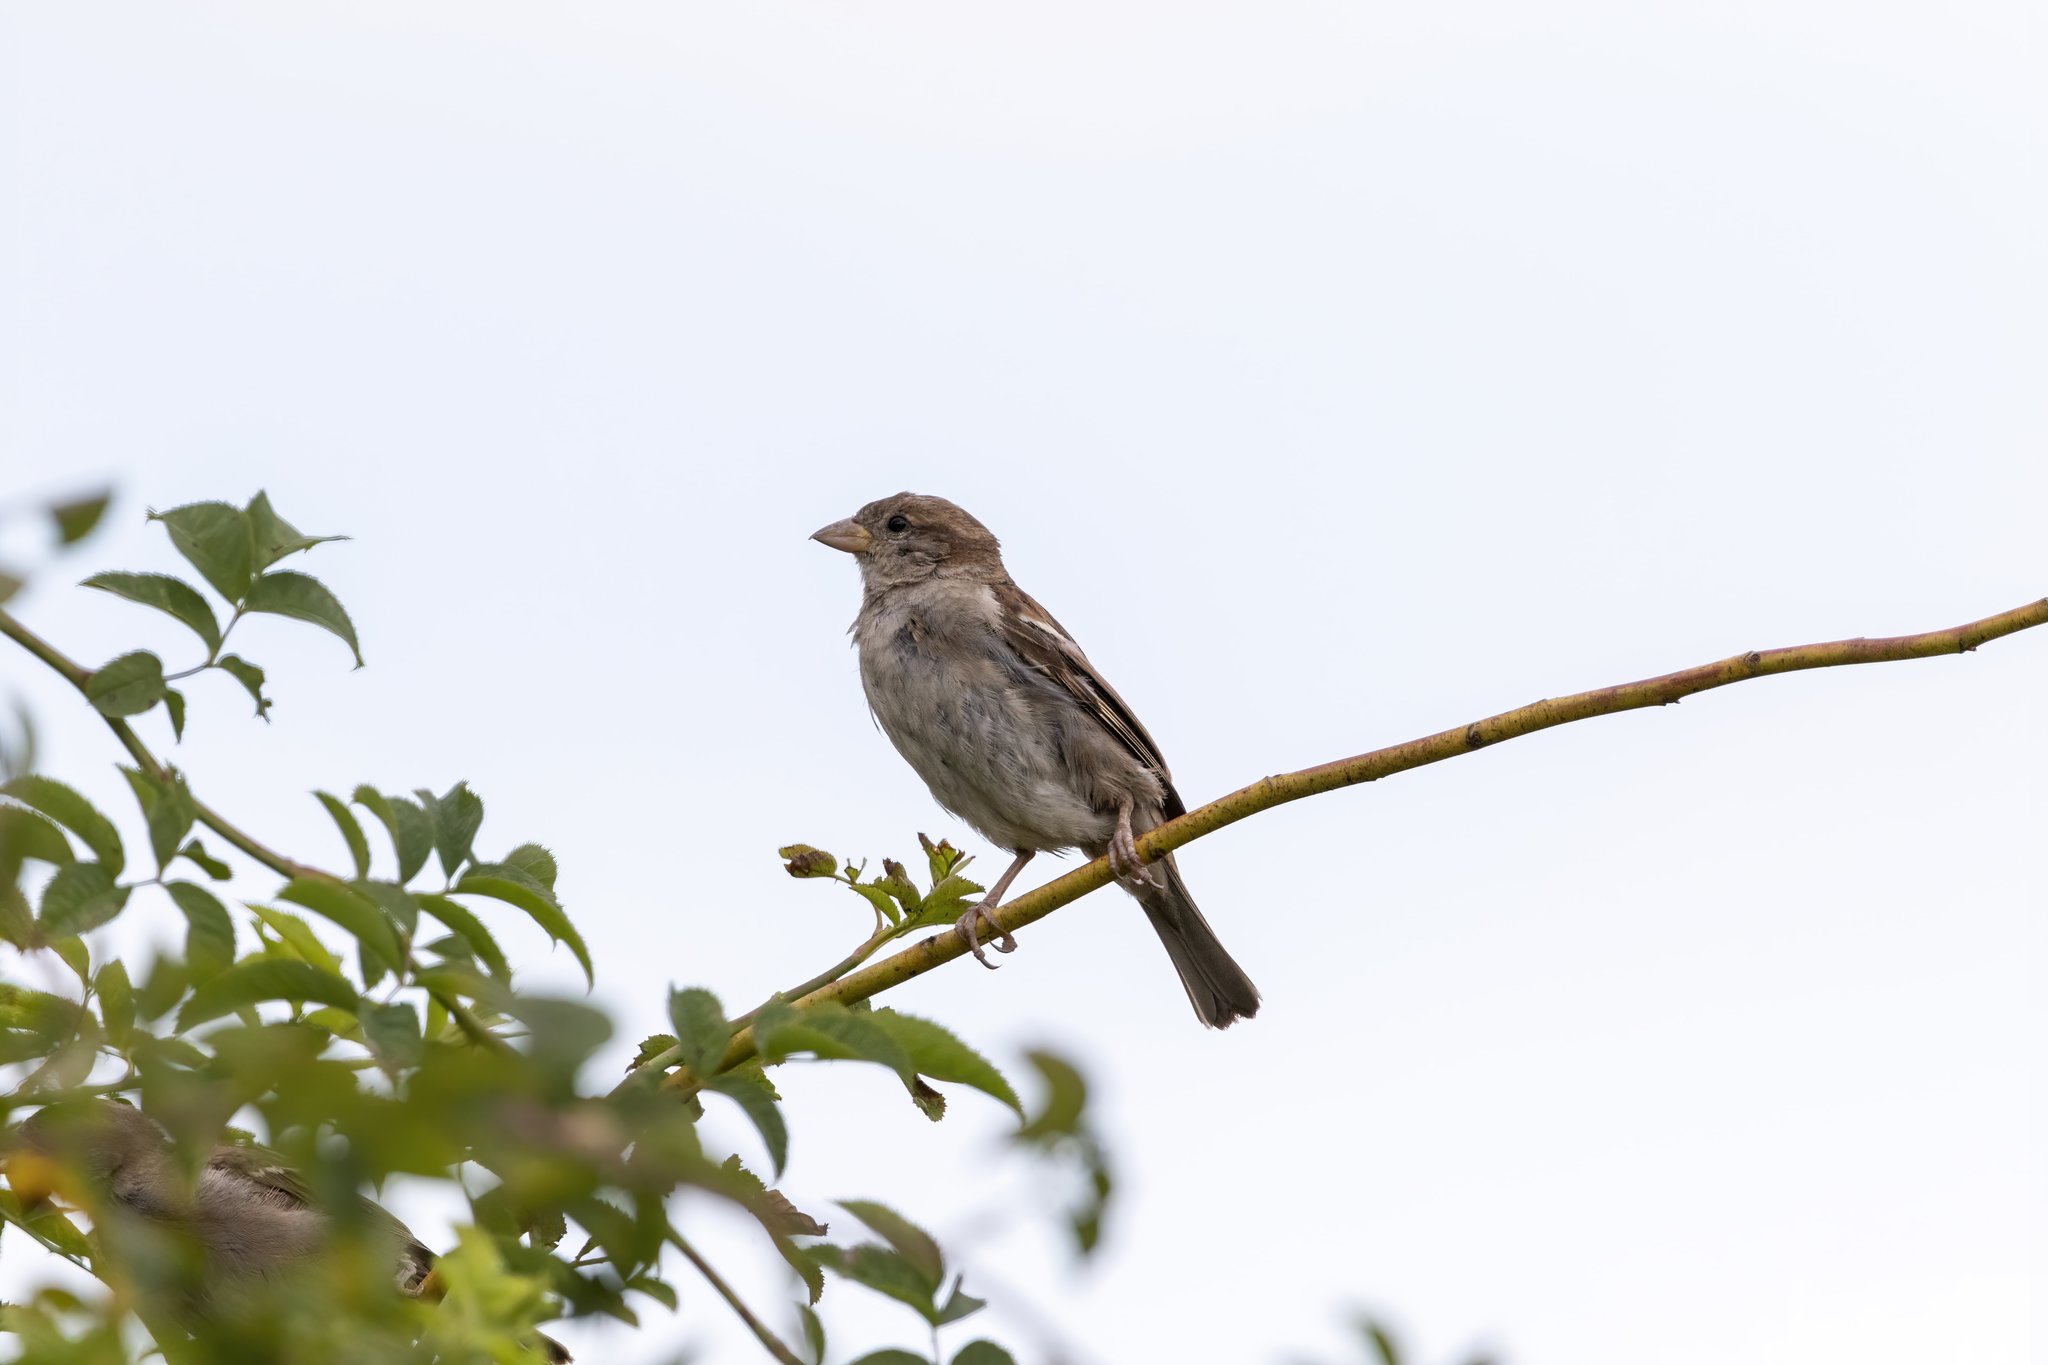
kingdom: Animalia
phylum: Chordata
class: Aves
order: Passeriformes
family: Passeridae
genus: Passer
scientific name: Passer domesticus
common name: House sparrow
